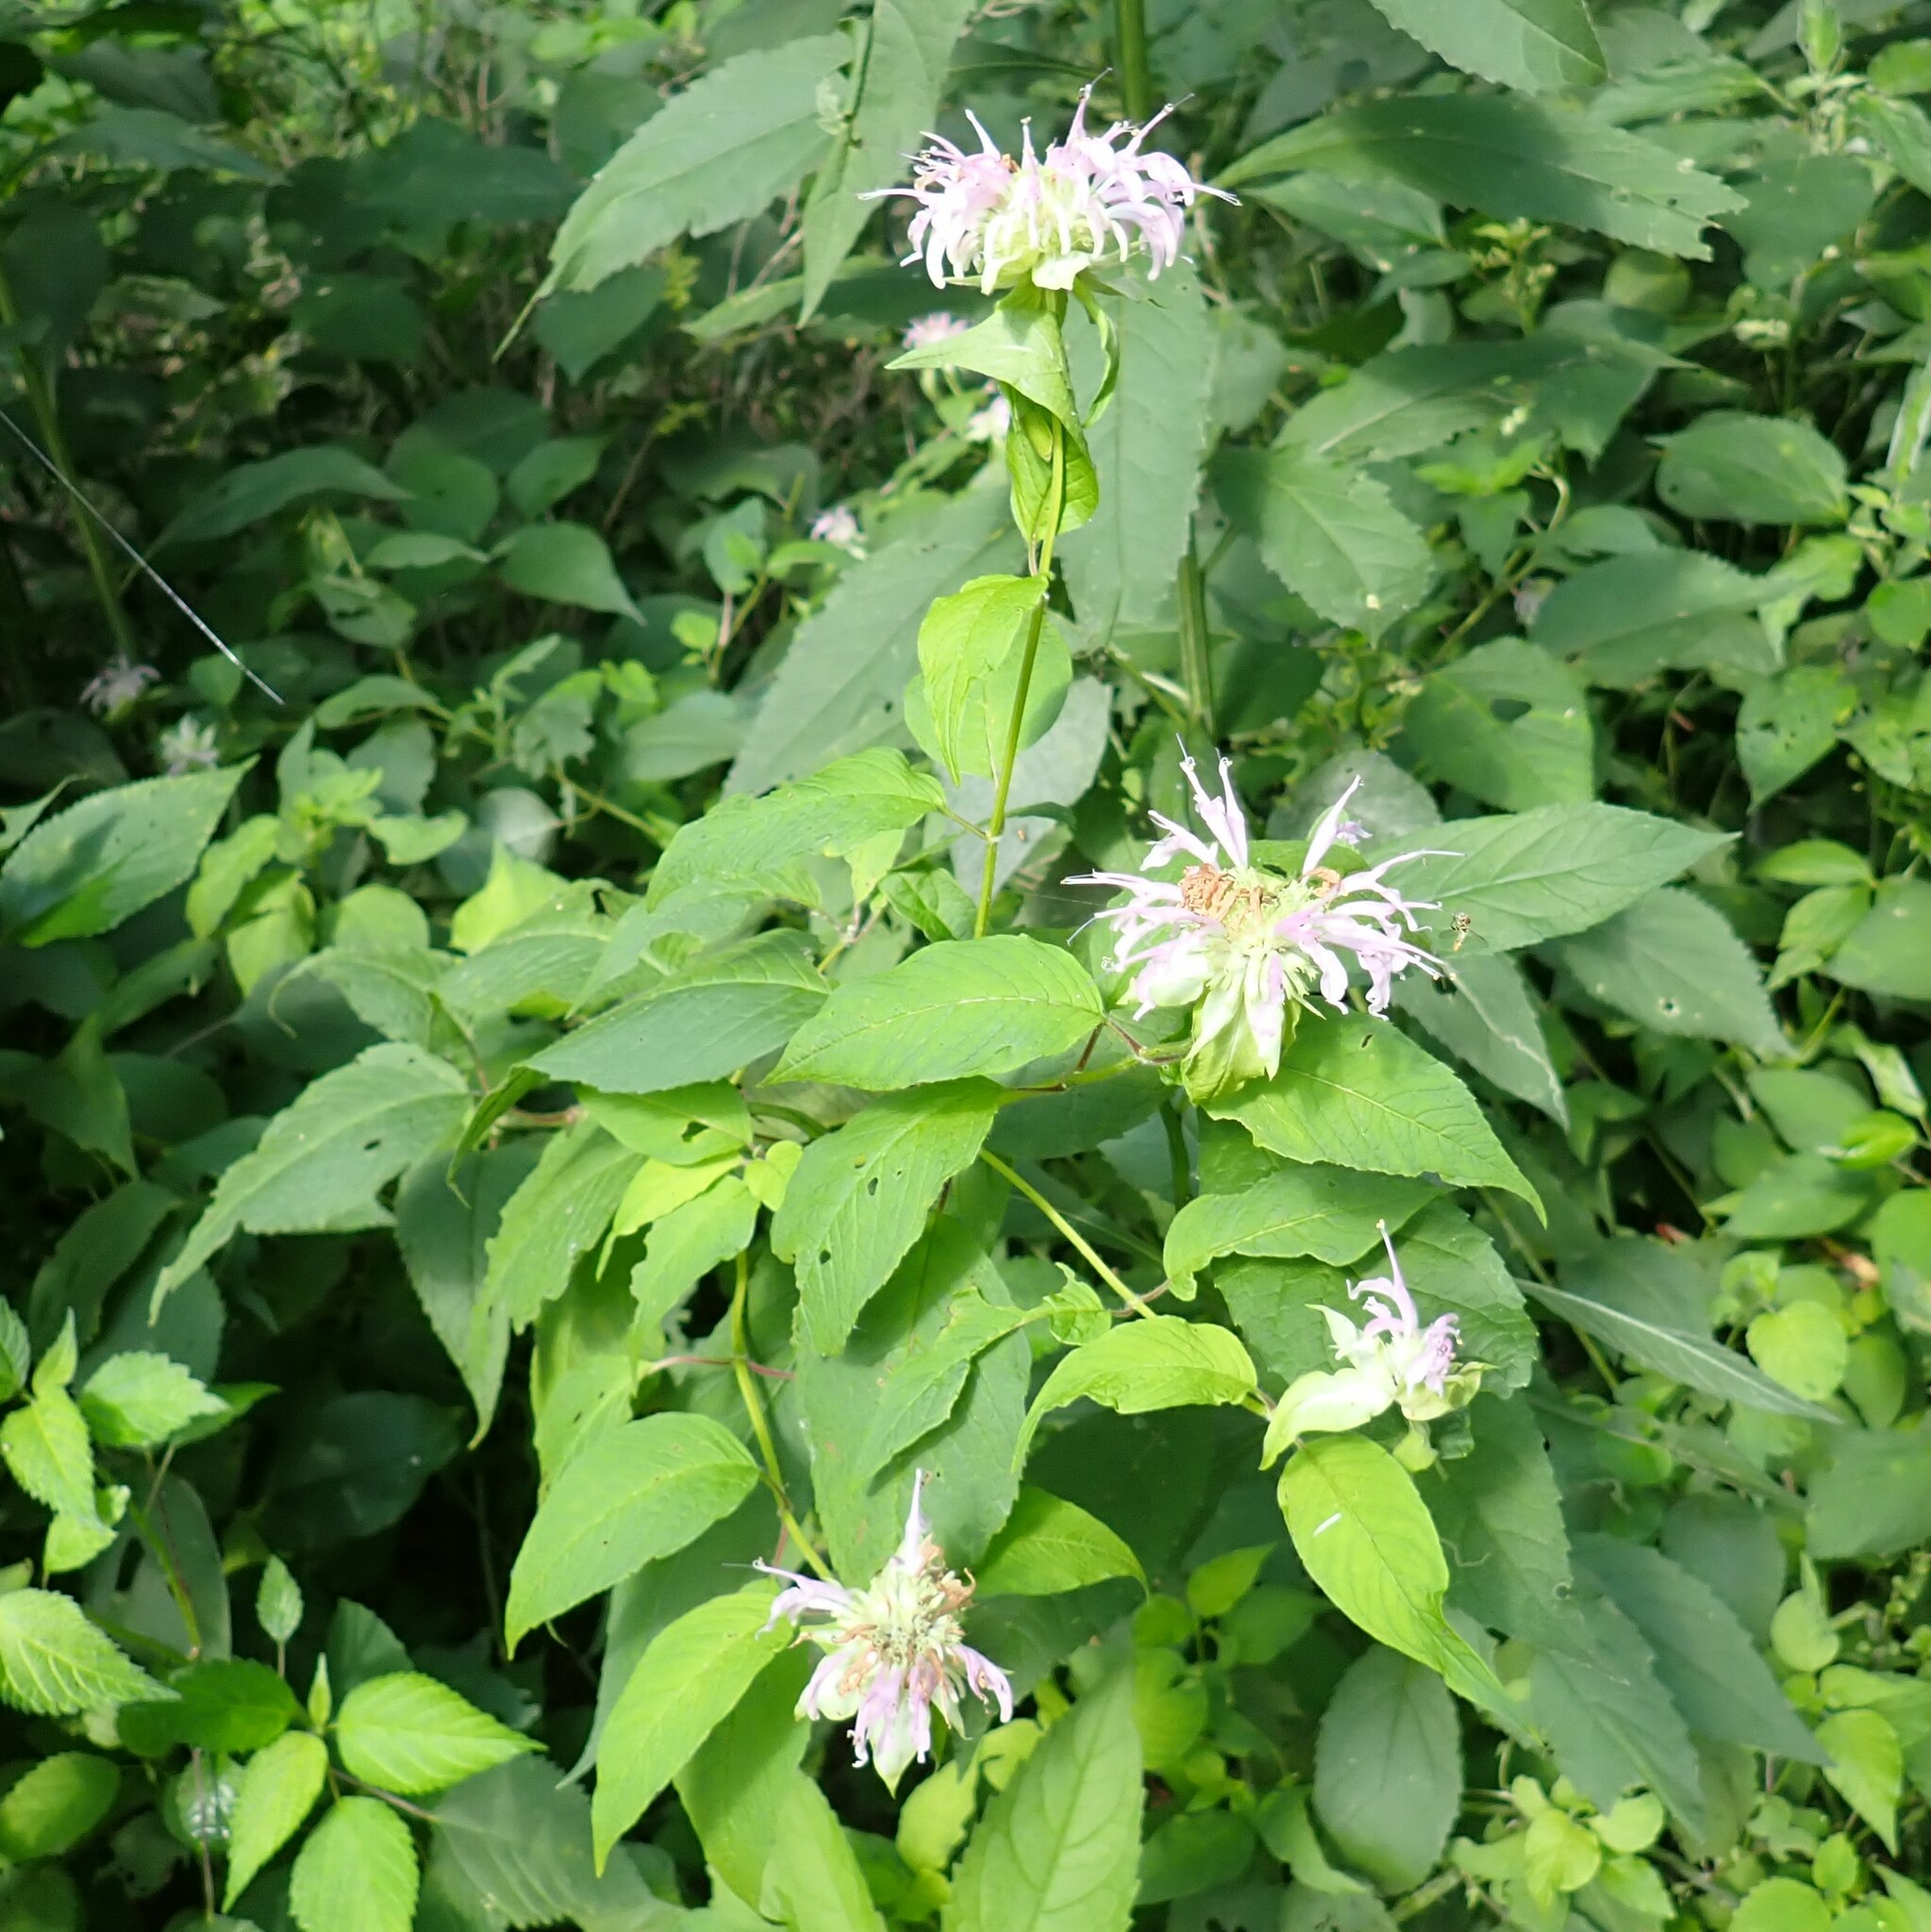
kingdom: Plantae
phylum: Tracheophyta
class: Magnoliopsida
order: Lamiales
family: Lamiaceae
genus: Monarda
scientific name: Monarda fistulosa
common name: Purple beebalm
